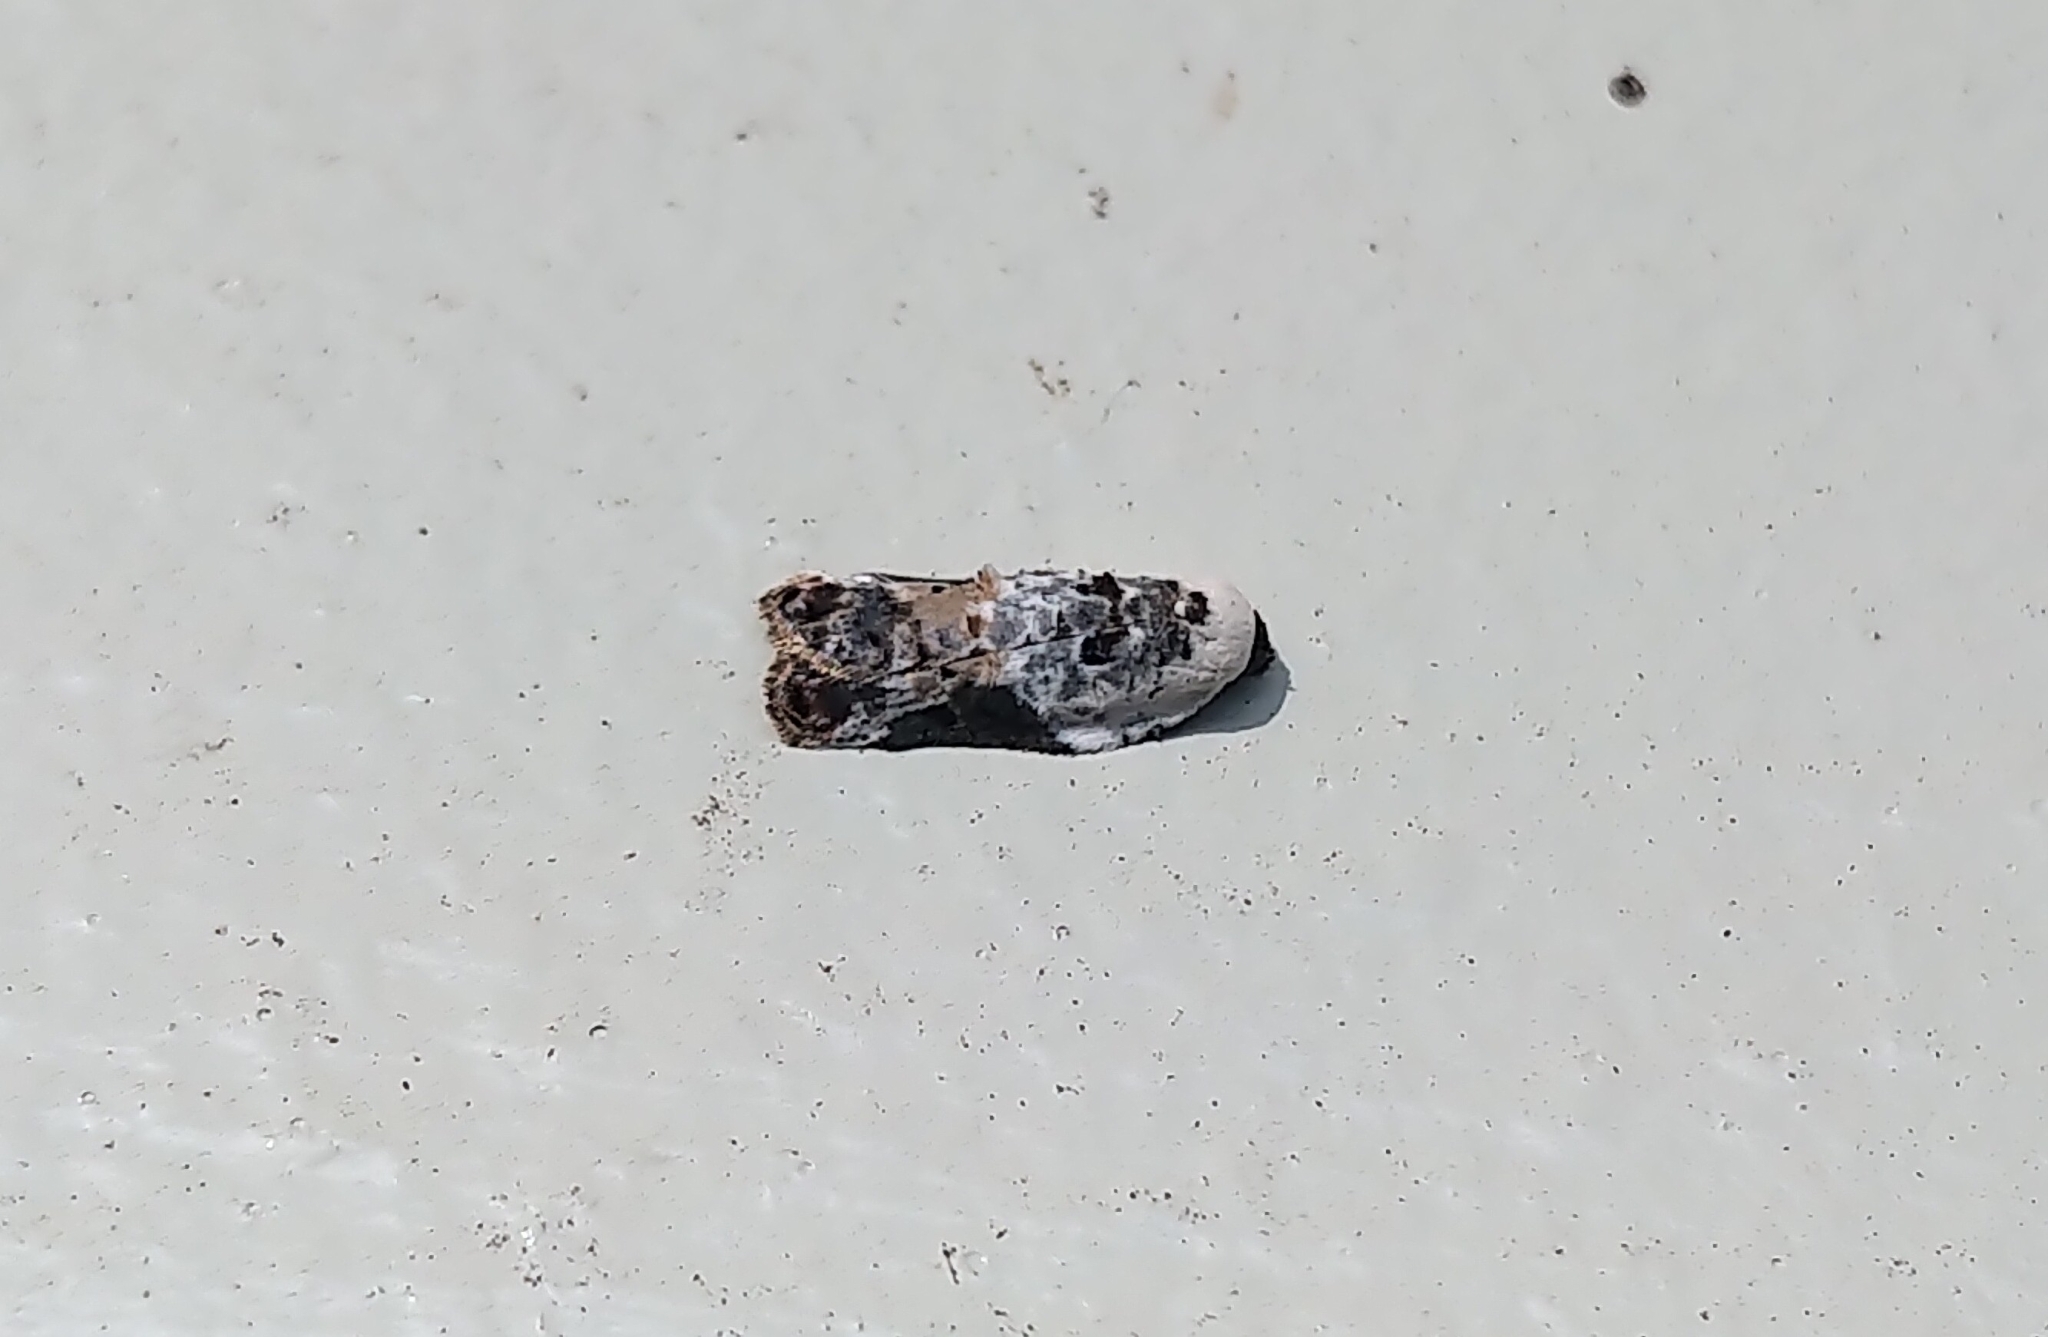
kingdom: Animalia
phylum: Arthropoda
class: Insecta
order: Lepidoptera
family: Tortricidae
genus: Acleris
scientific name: Acleris nivisellana
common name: Snowy-shouldered acleris moth
